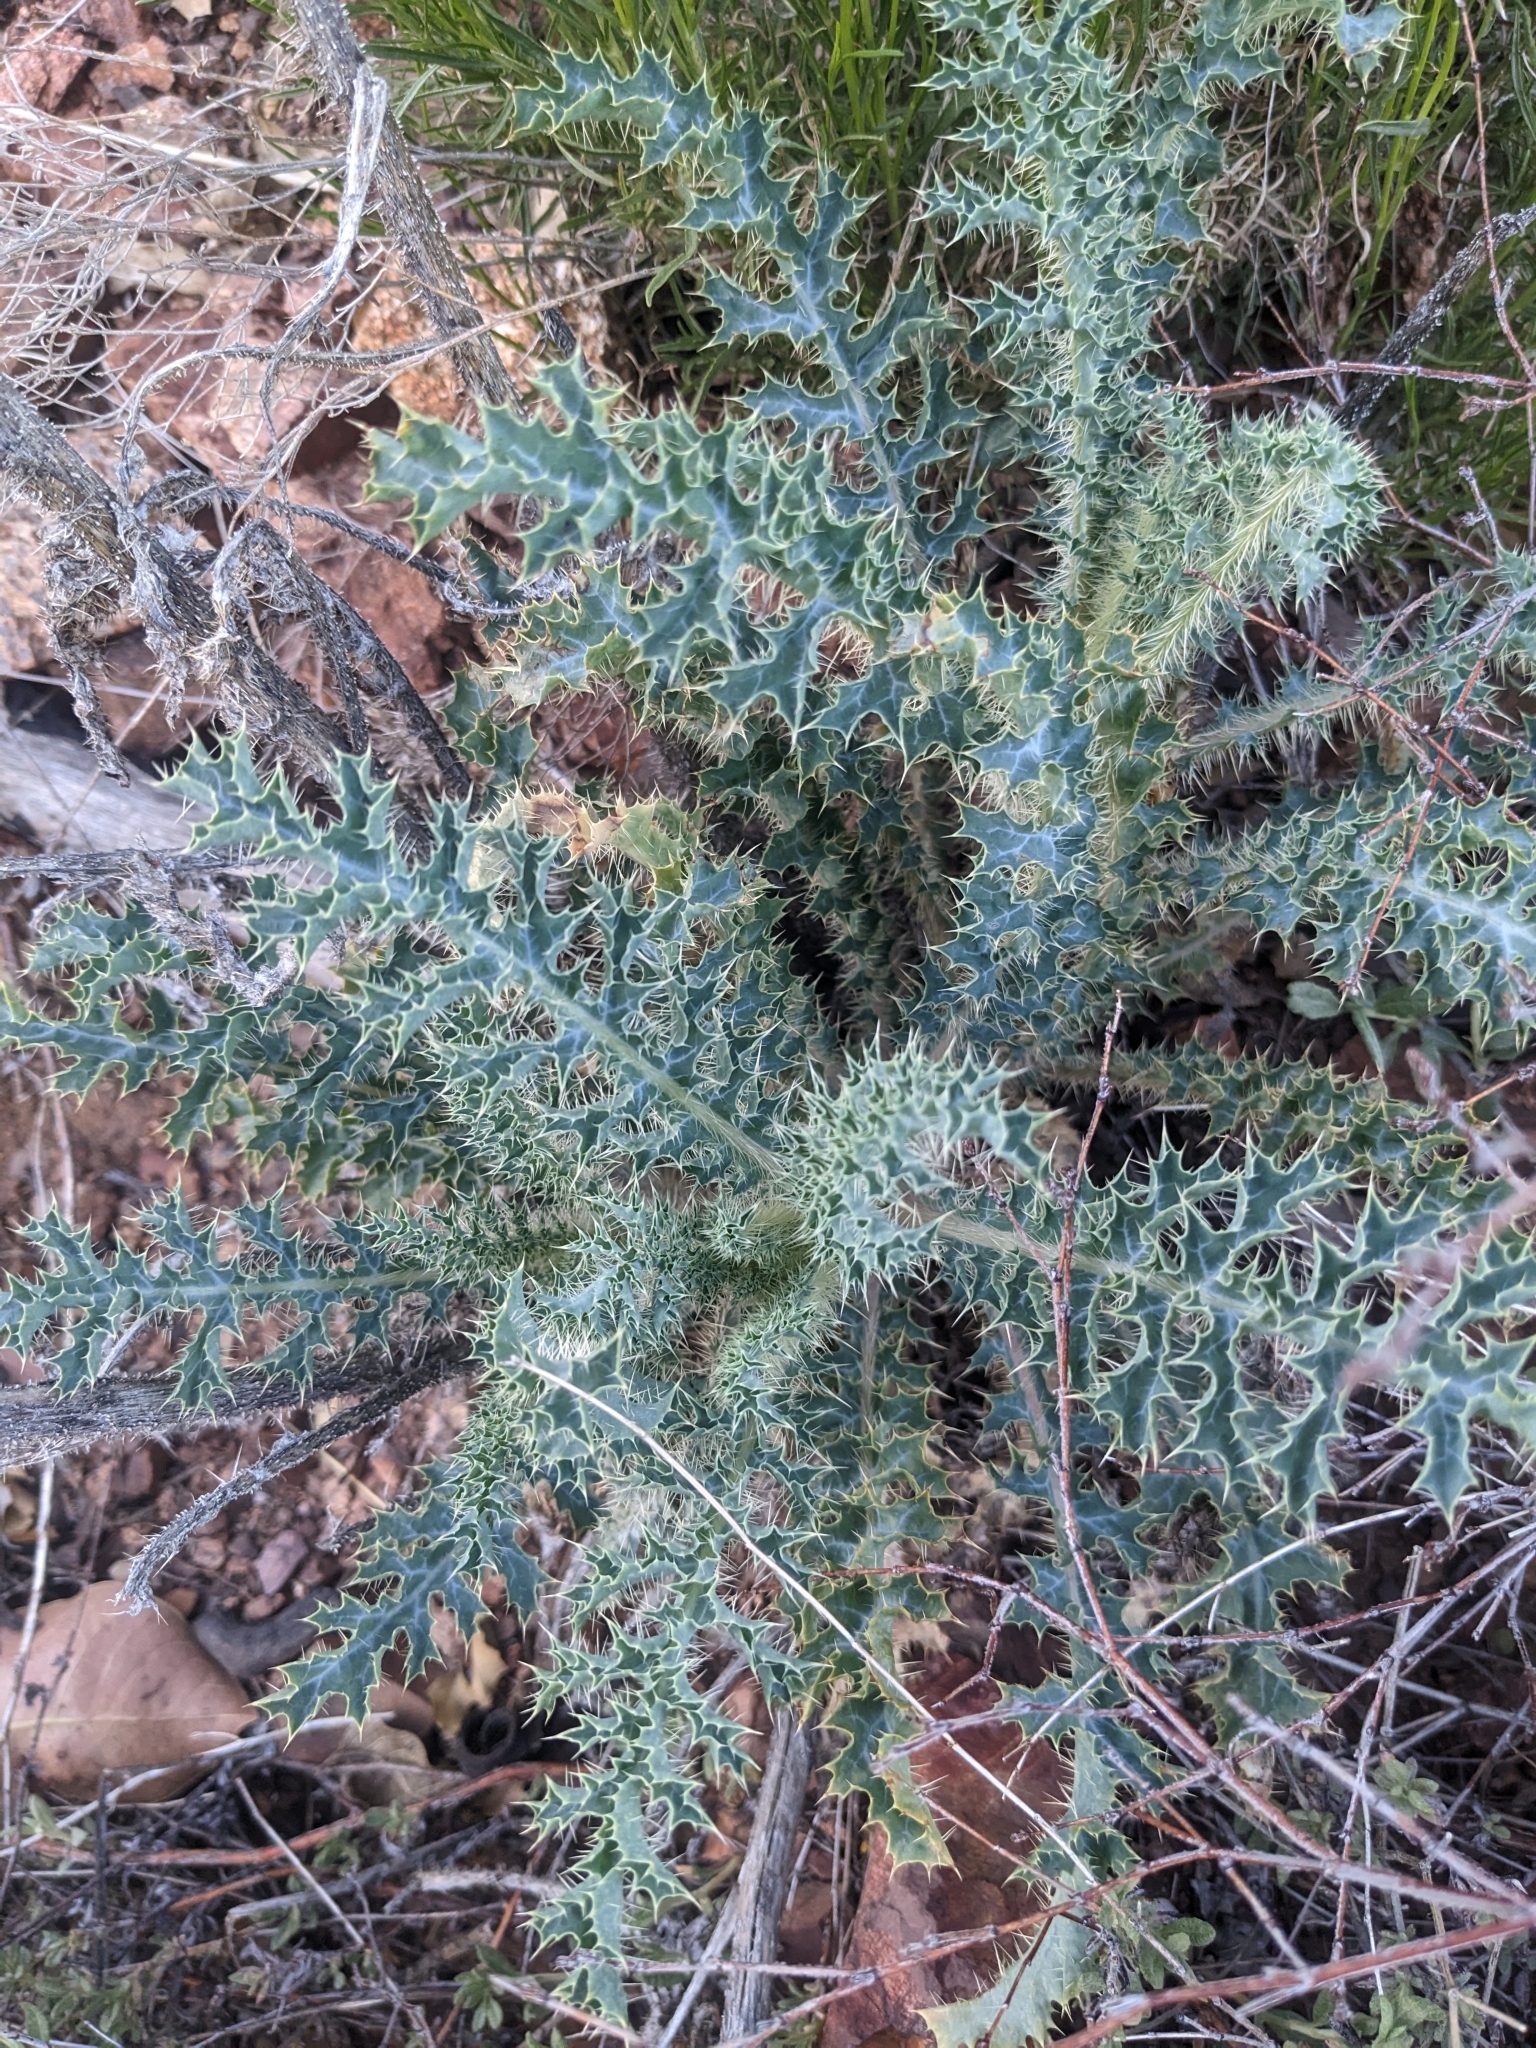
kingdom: Plantae
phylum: Tracheophyta
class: Magnoliopsida
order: Ranunculales
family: Papaveraceae
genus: Argemone
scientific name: Argemone pleiacantha
